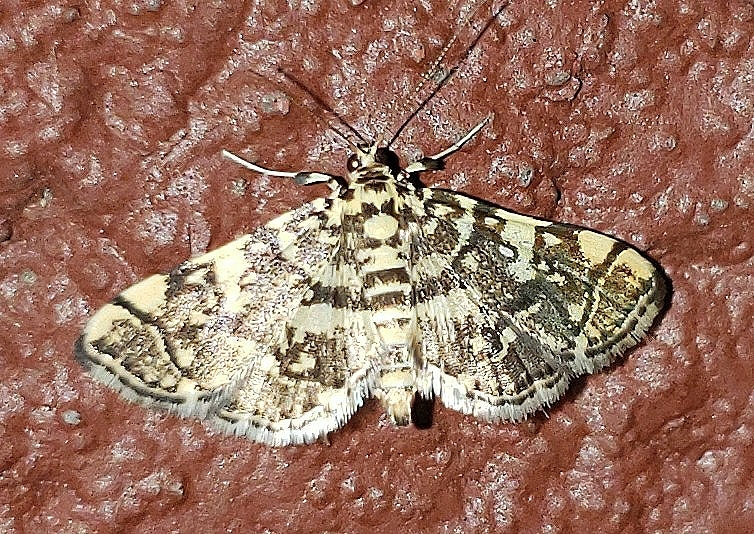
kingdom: Animalia
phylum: Arthropoda
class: Insecta
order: Lepidoptera
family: Crambidae
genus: Apogeshna
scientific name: Apogeshna stenialis
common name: Checkered apogeshna moth
